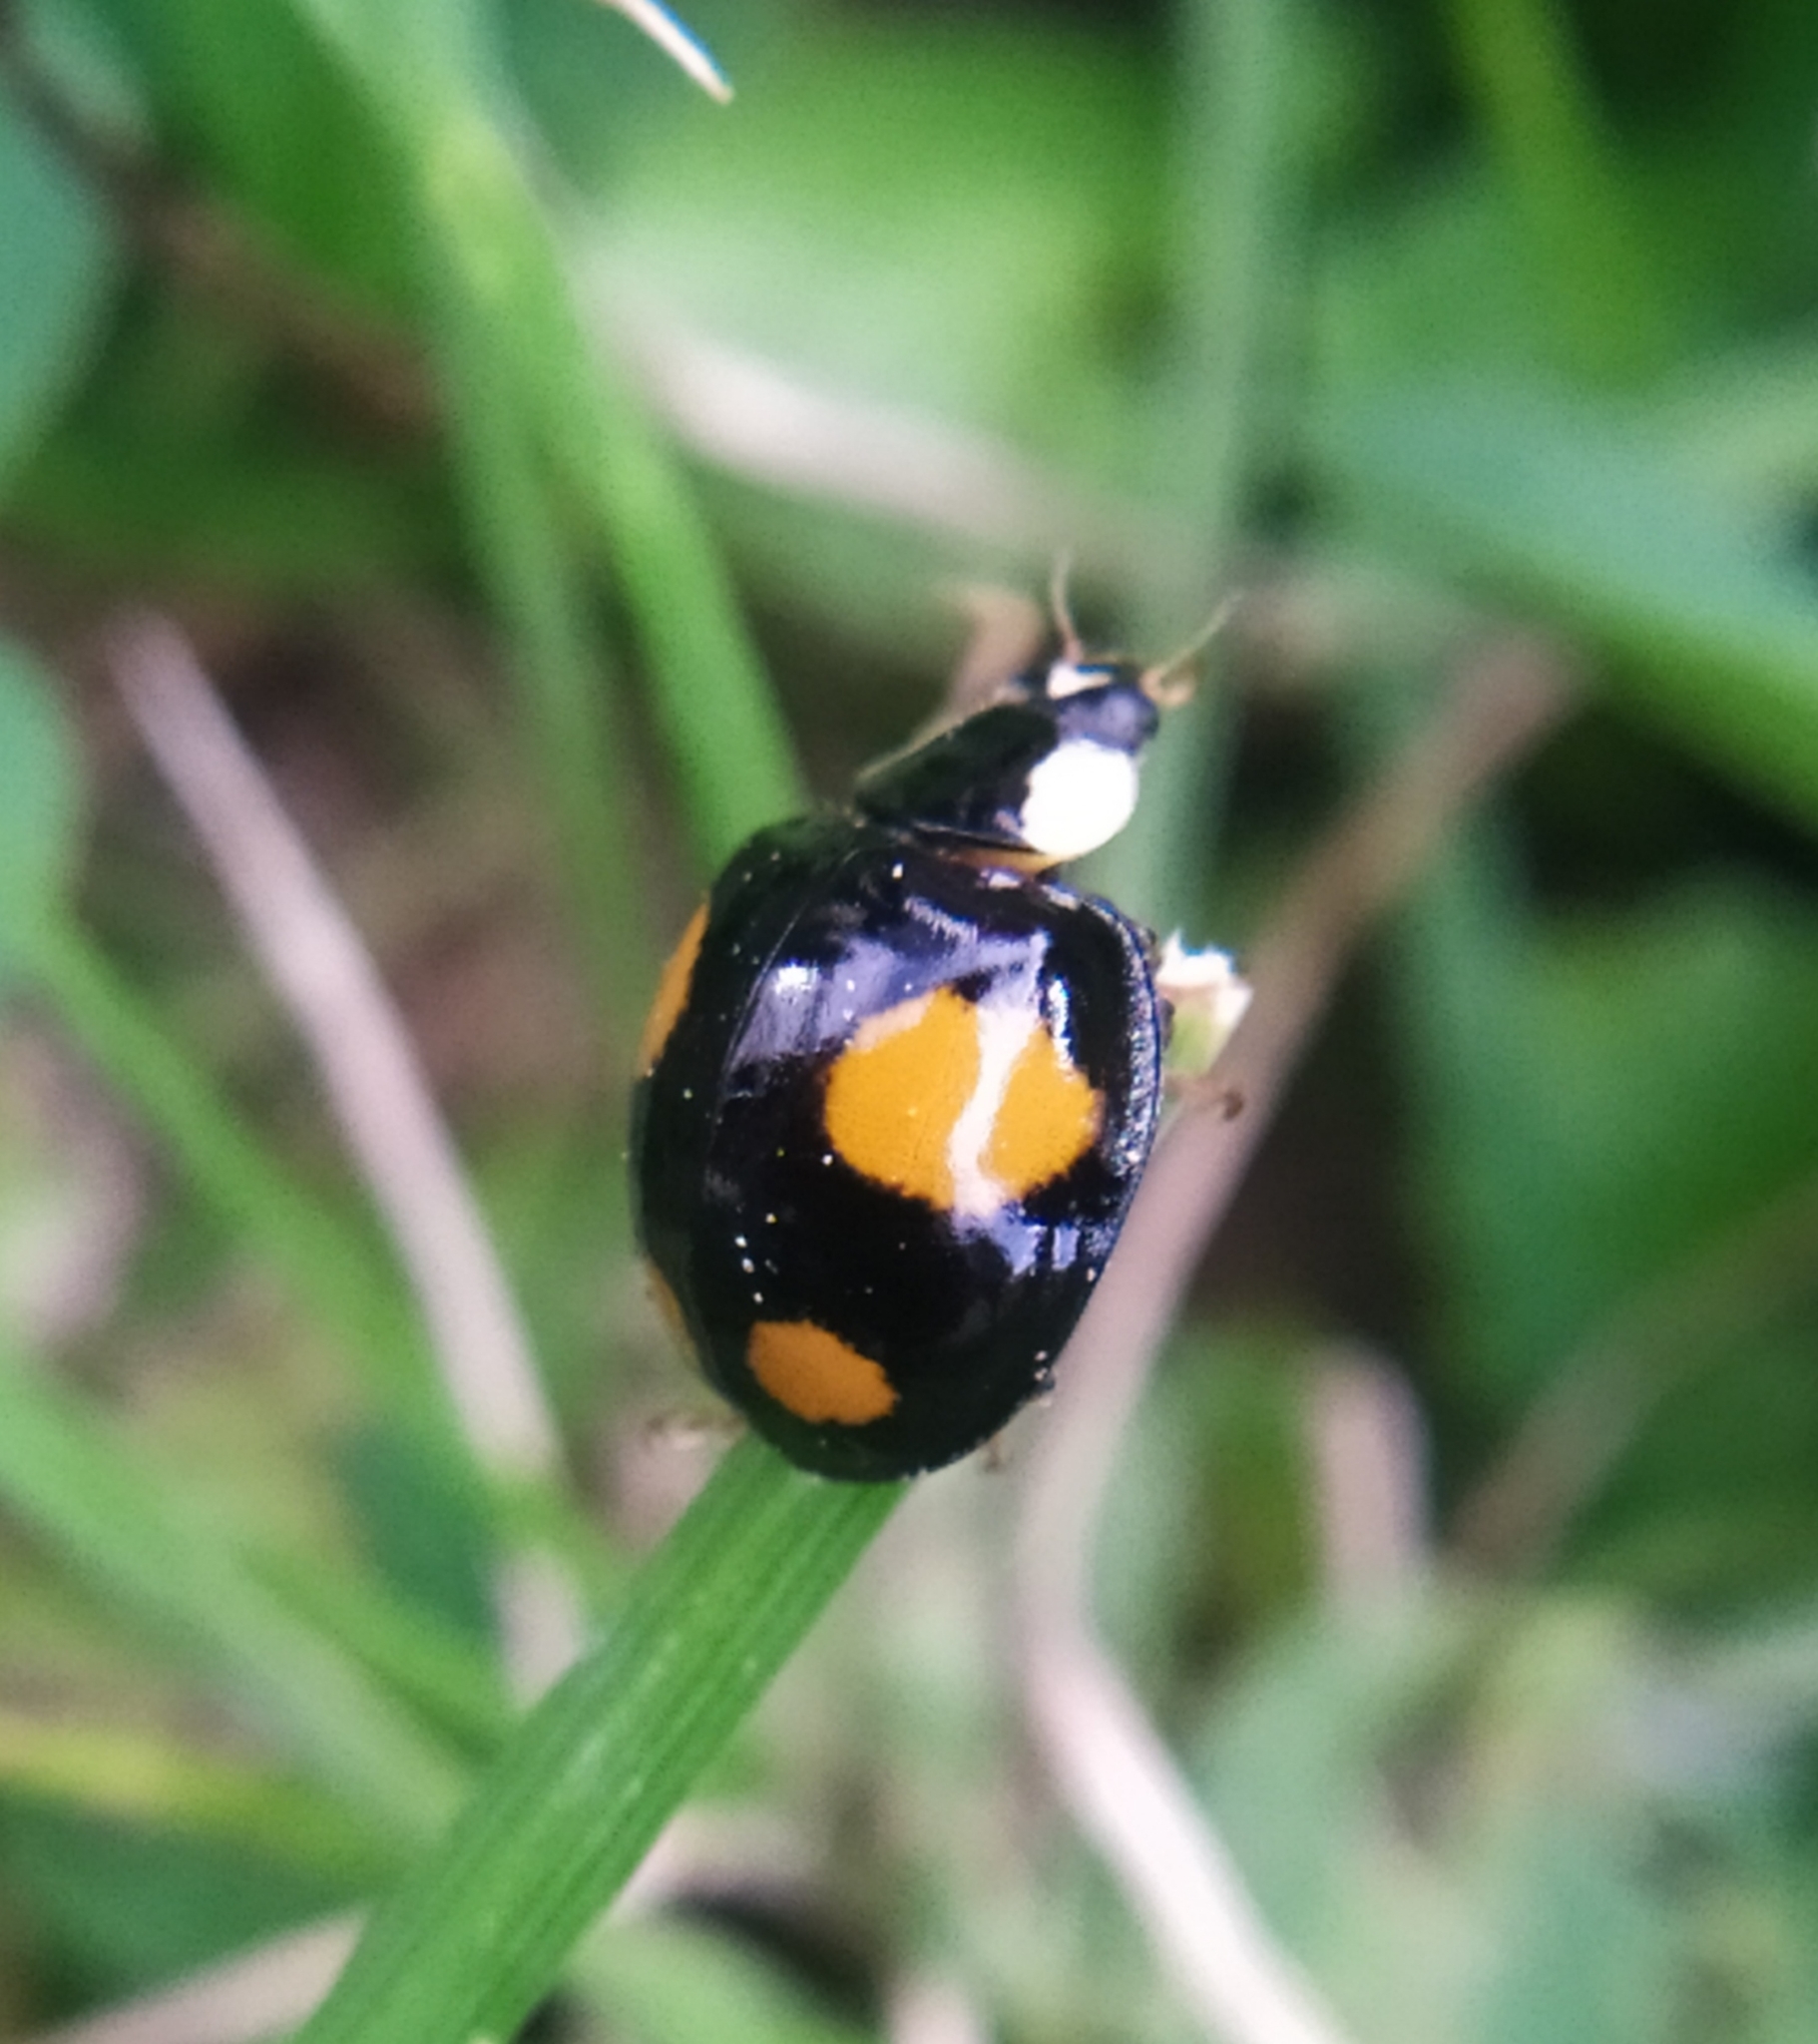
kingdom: Animalia
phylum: Arthropoda
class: Insecta
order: Coleoptera
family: Coccinellidae
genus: Harmonia
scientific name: Harmonia axyridis
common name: Harlequin ladybird
